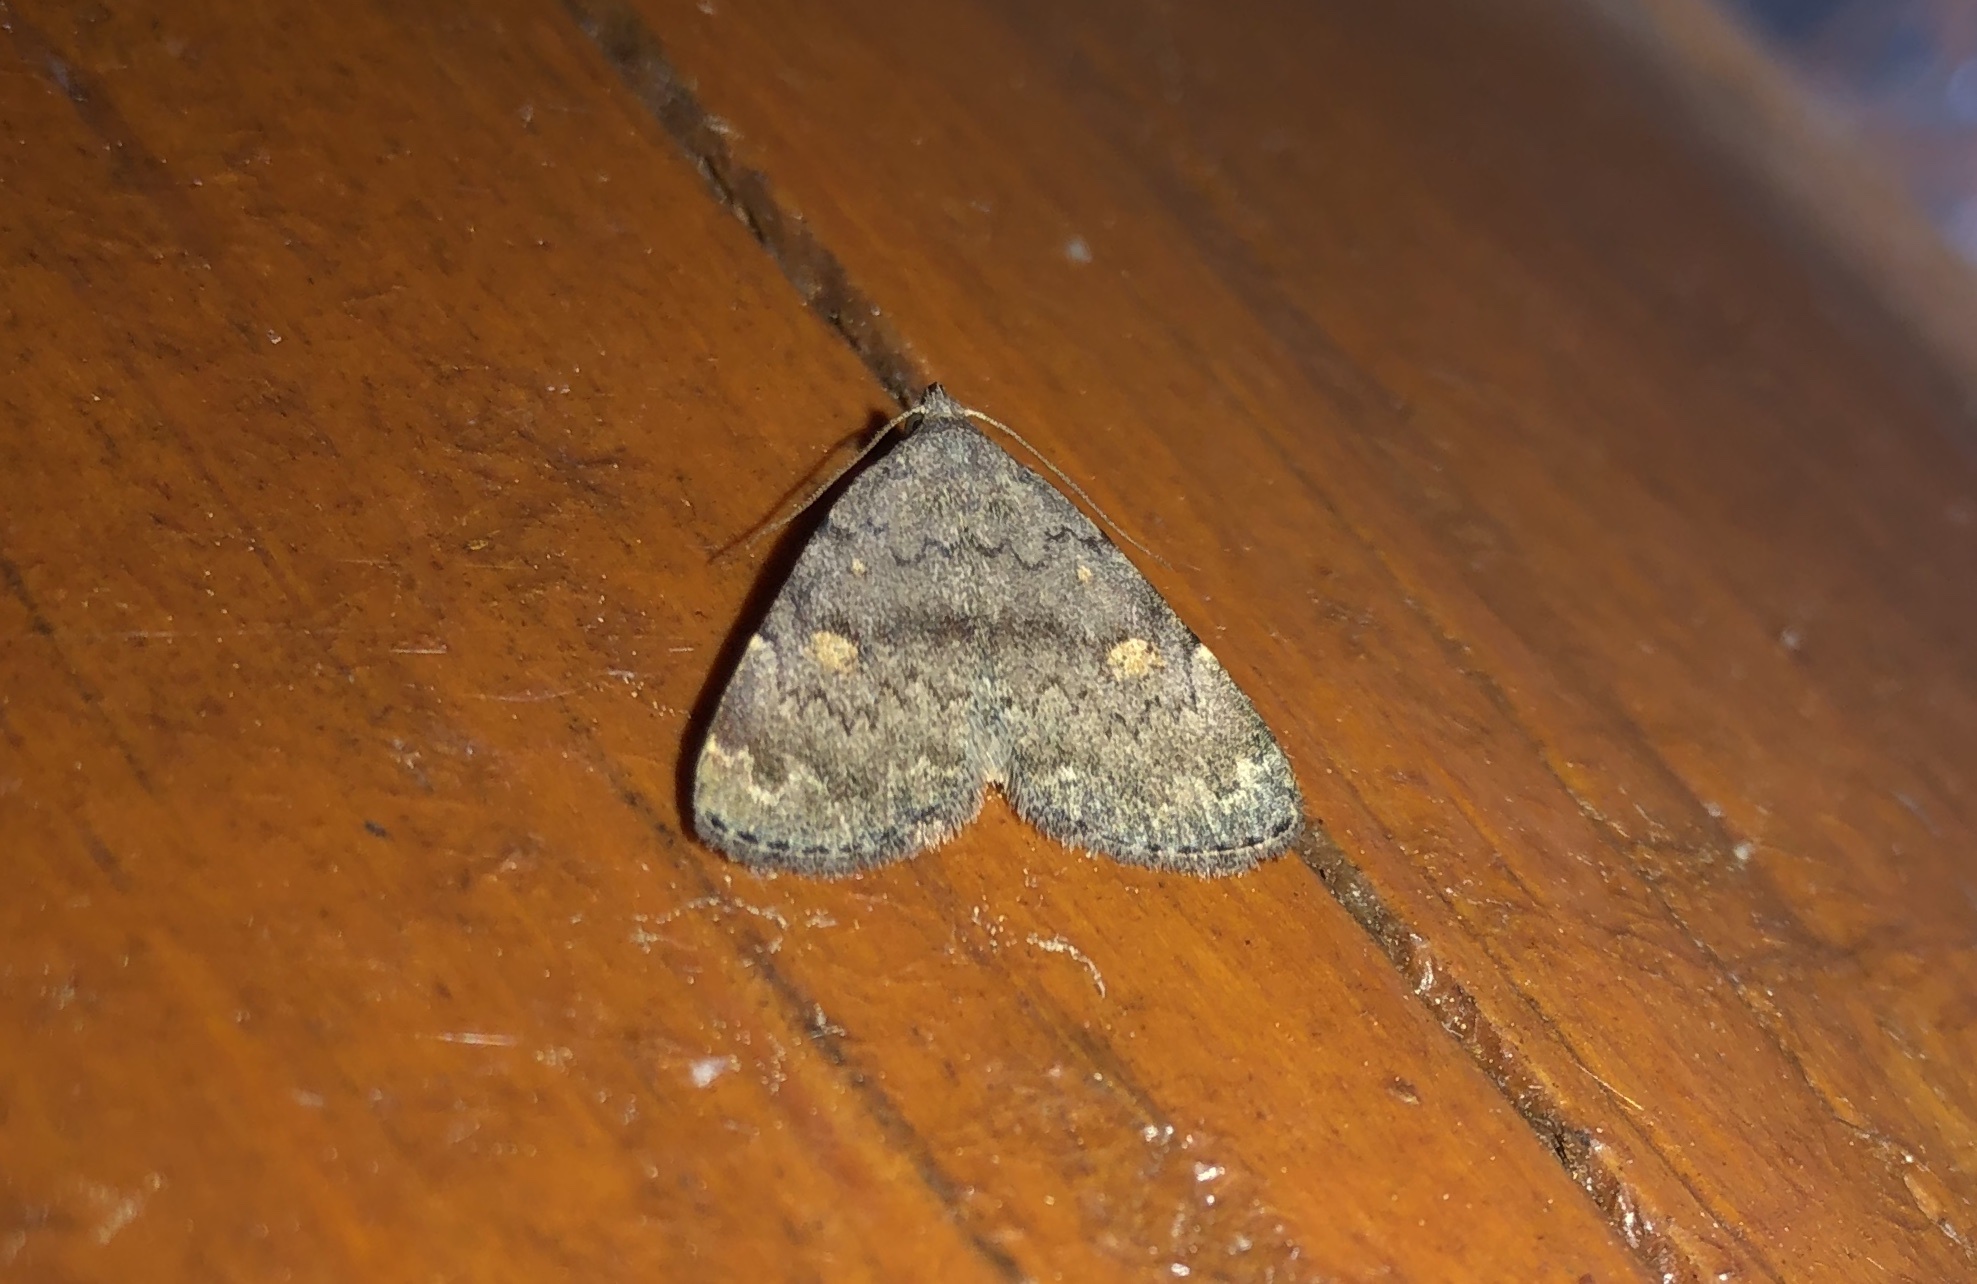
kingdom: Animalia
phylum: Arthropoda
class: Insecta
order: Lepidoptera
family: Erebidae
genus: Idia
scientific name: Idia aemula
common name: Common idia moth
